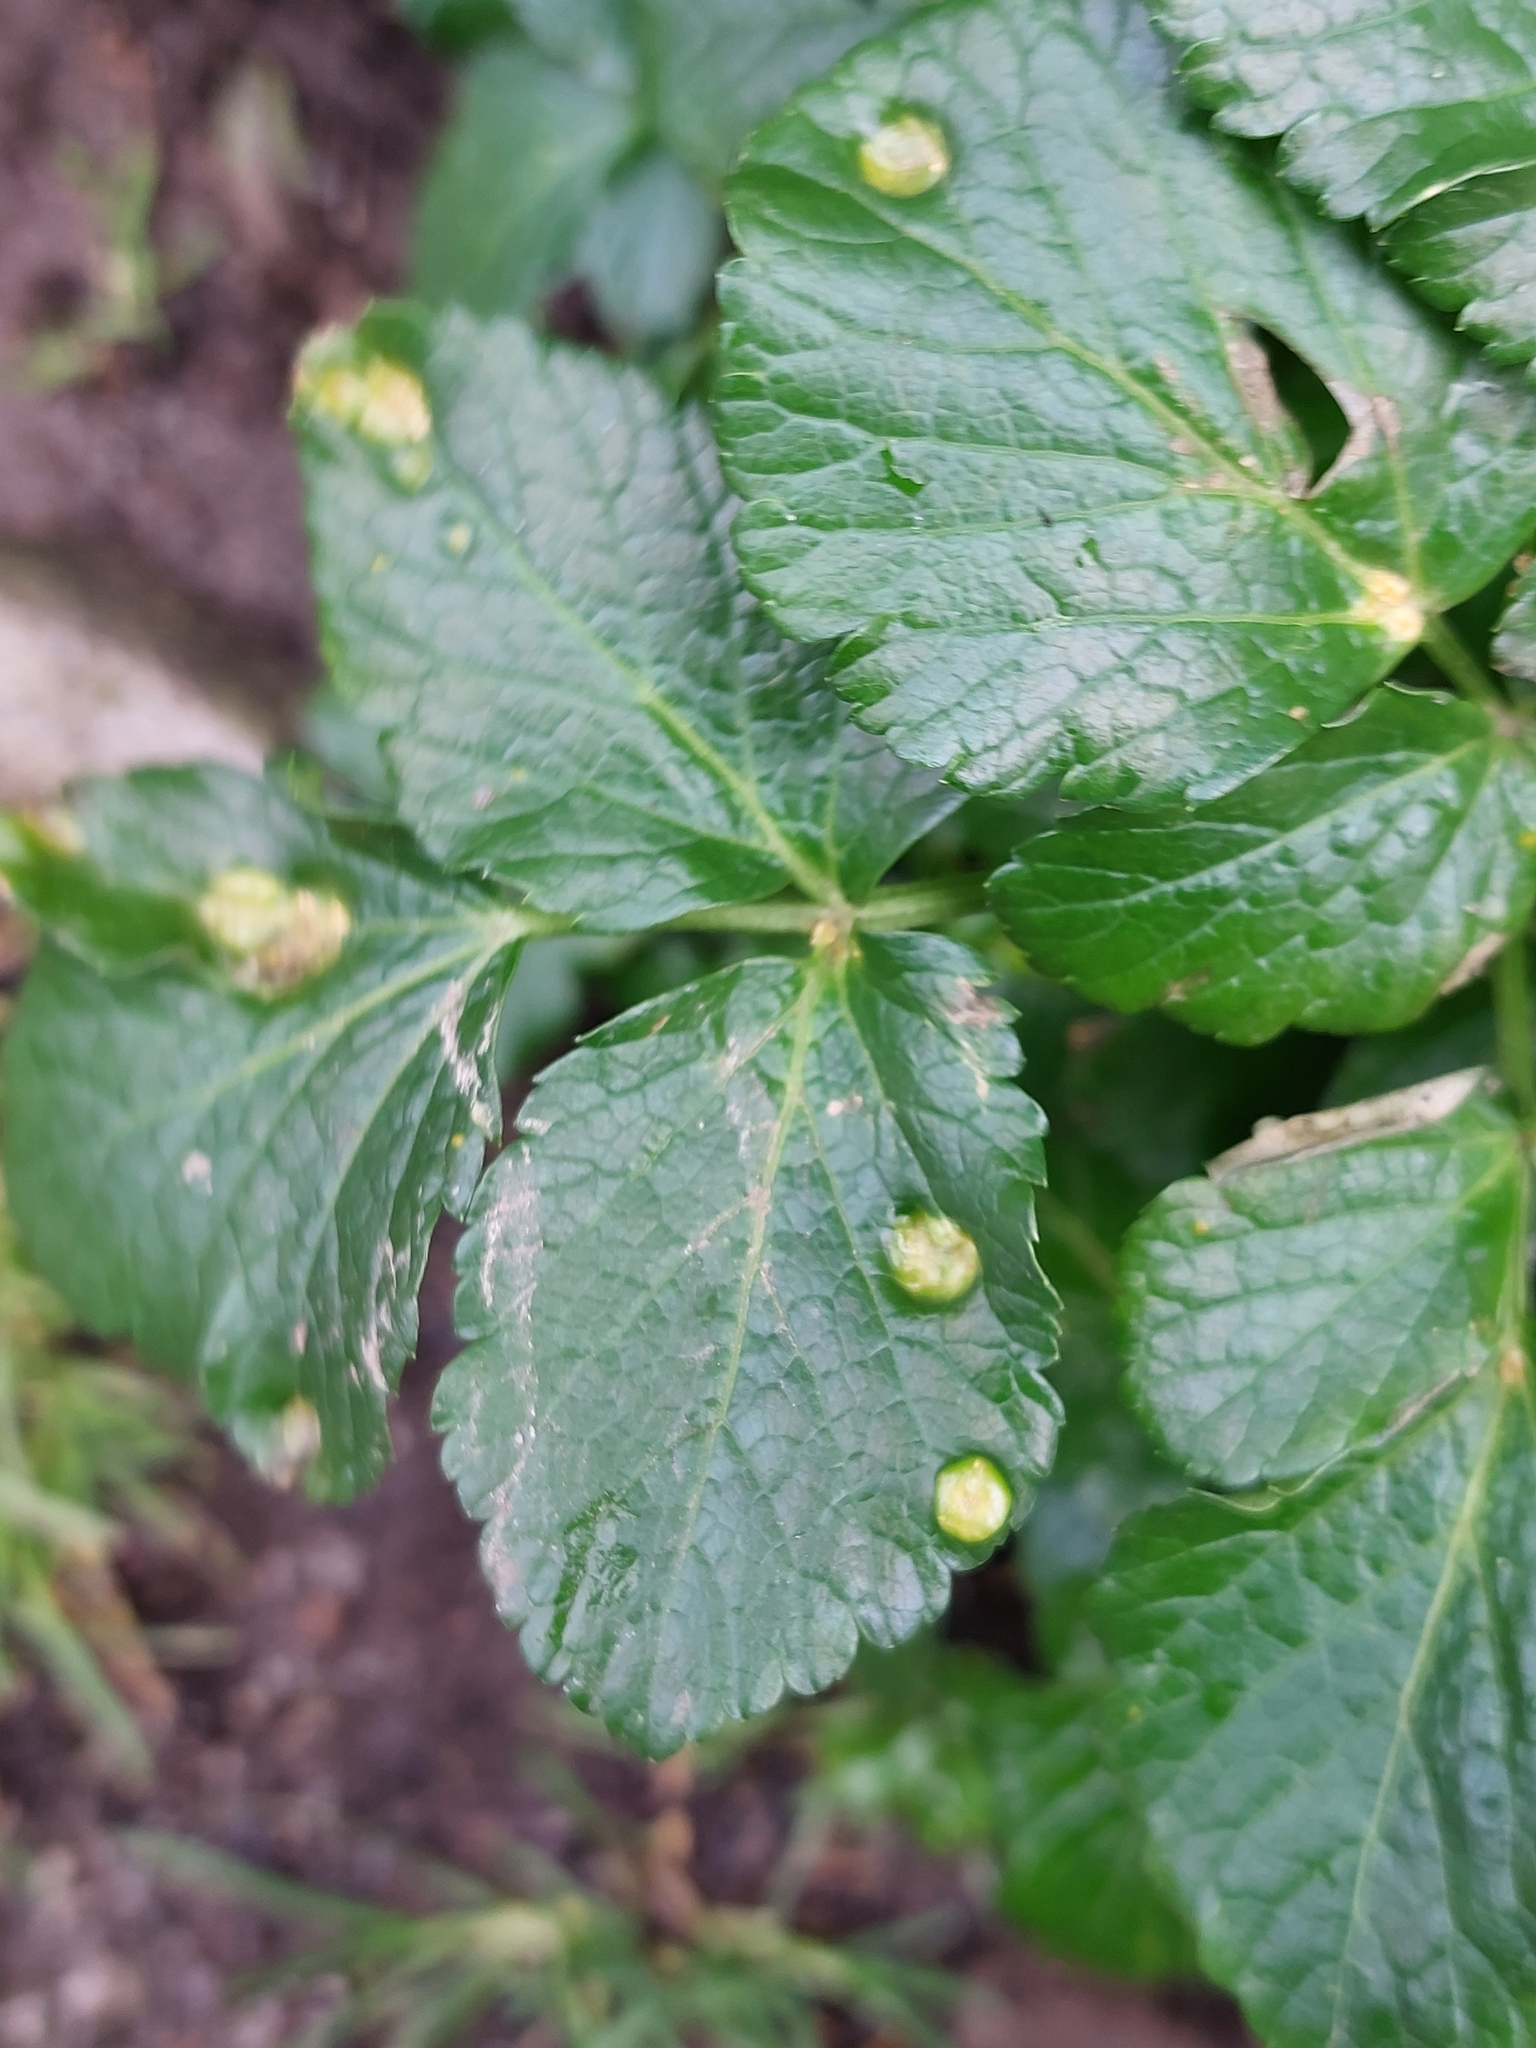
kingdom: Fungi
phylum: Basidiomycota
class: Pucciniomycetes
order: Pucciniales
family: Pucciniaceae
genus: Puccinia
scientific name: Puccinia smyrnii
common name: Alexanders rust
